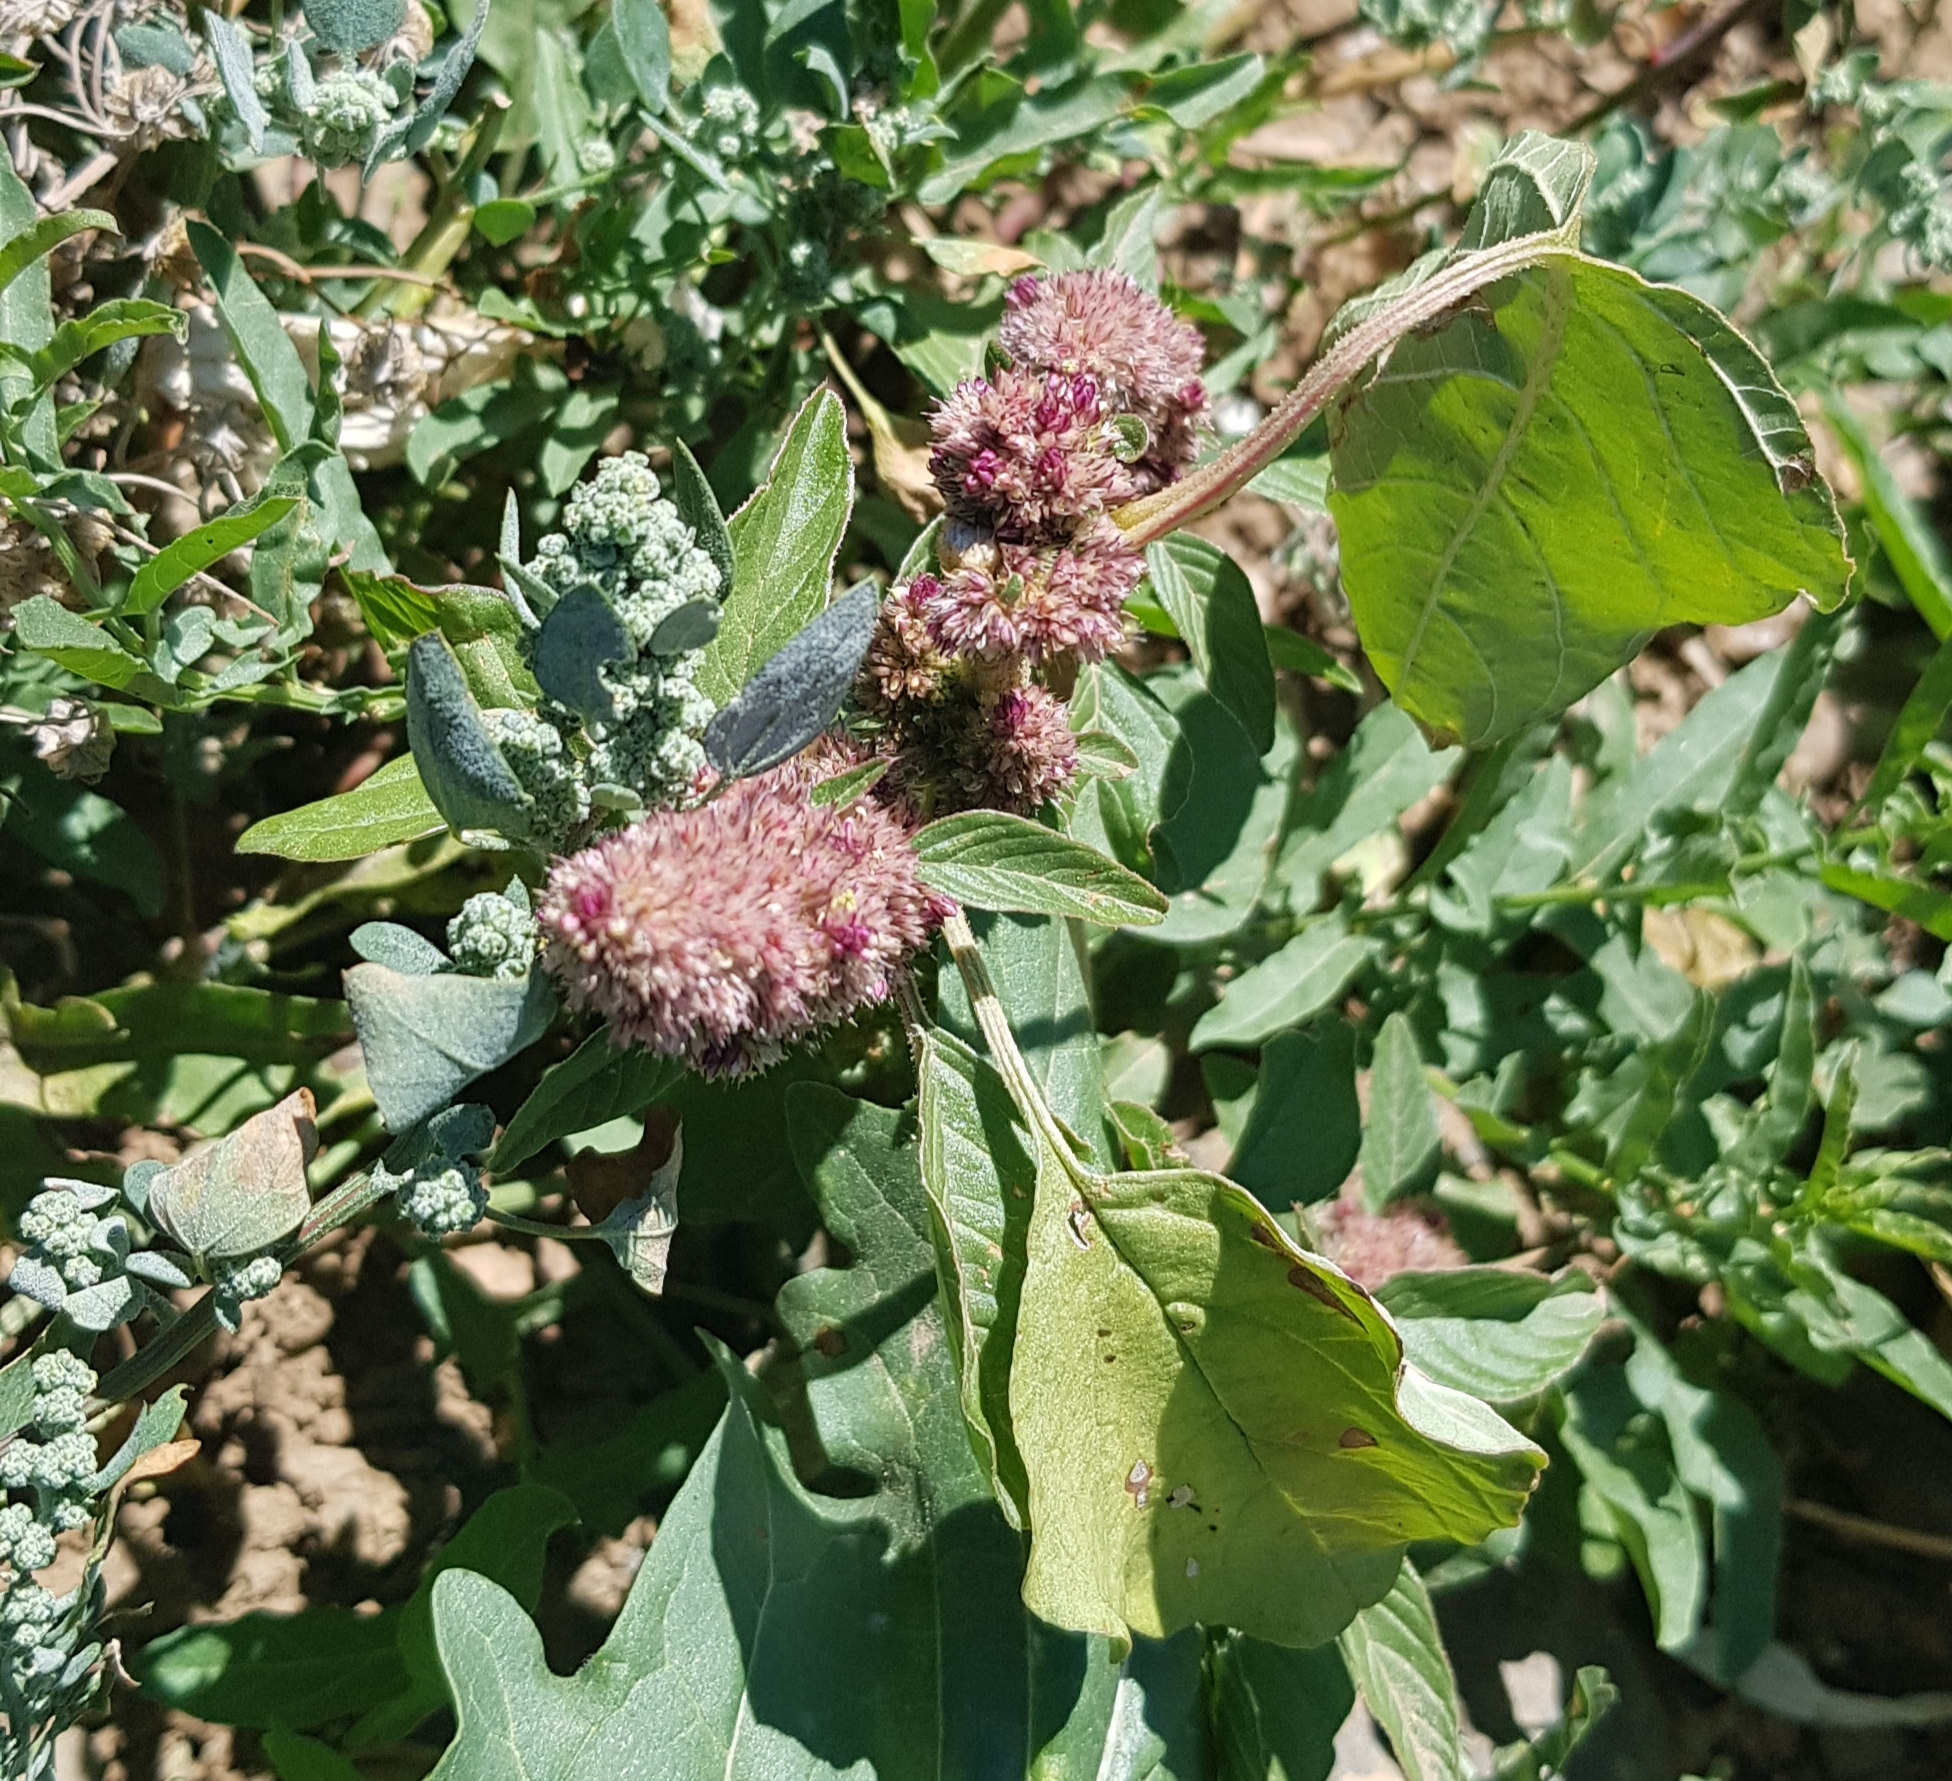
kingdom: Plantae
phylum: Tracheophyta
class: Magnoliopsida
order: Caryophyllales
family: Amaranthaceae
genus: Amaranthus
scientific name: Amaranthus retroflexus
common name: Redroot amaranth
